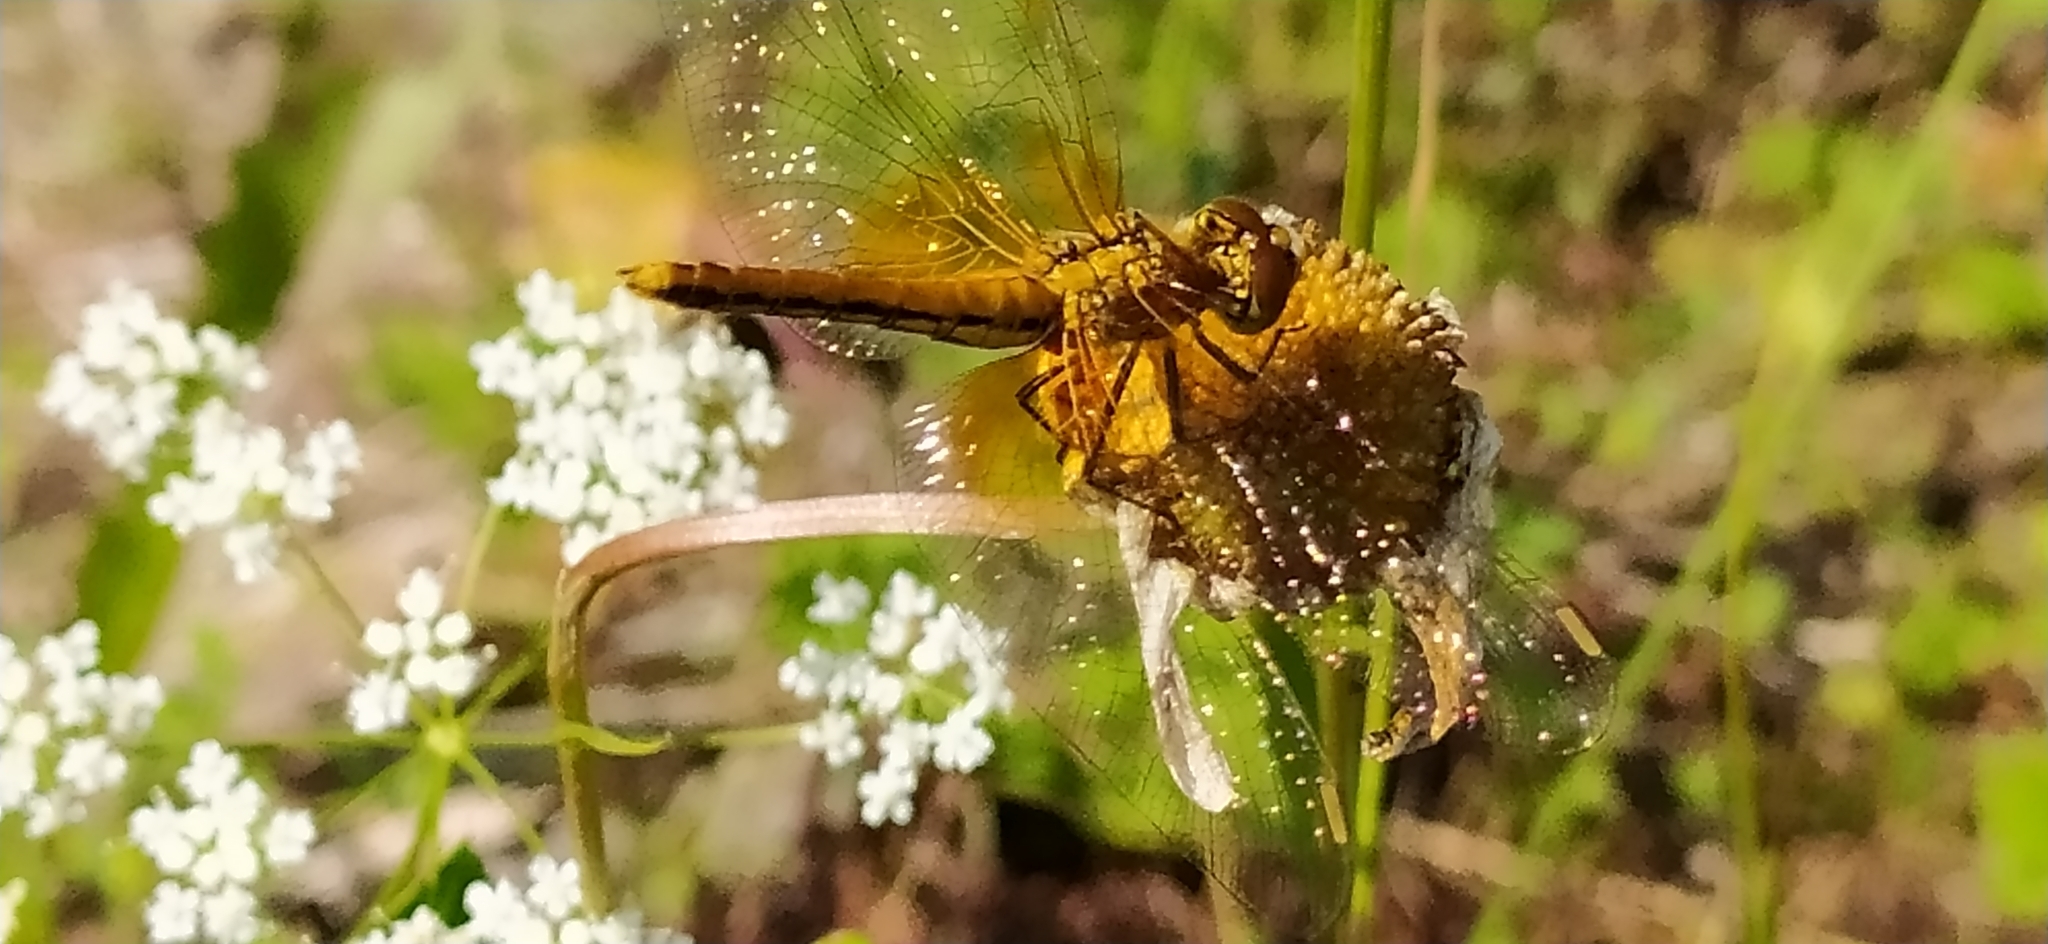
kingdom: Animalia
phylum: Arthropoda
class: Insecta
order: Odonata
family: Libellulidae
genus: Sympetrum
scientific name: Sympetrum flaveolum
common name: Yellow-winged darter
